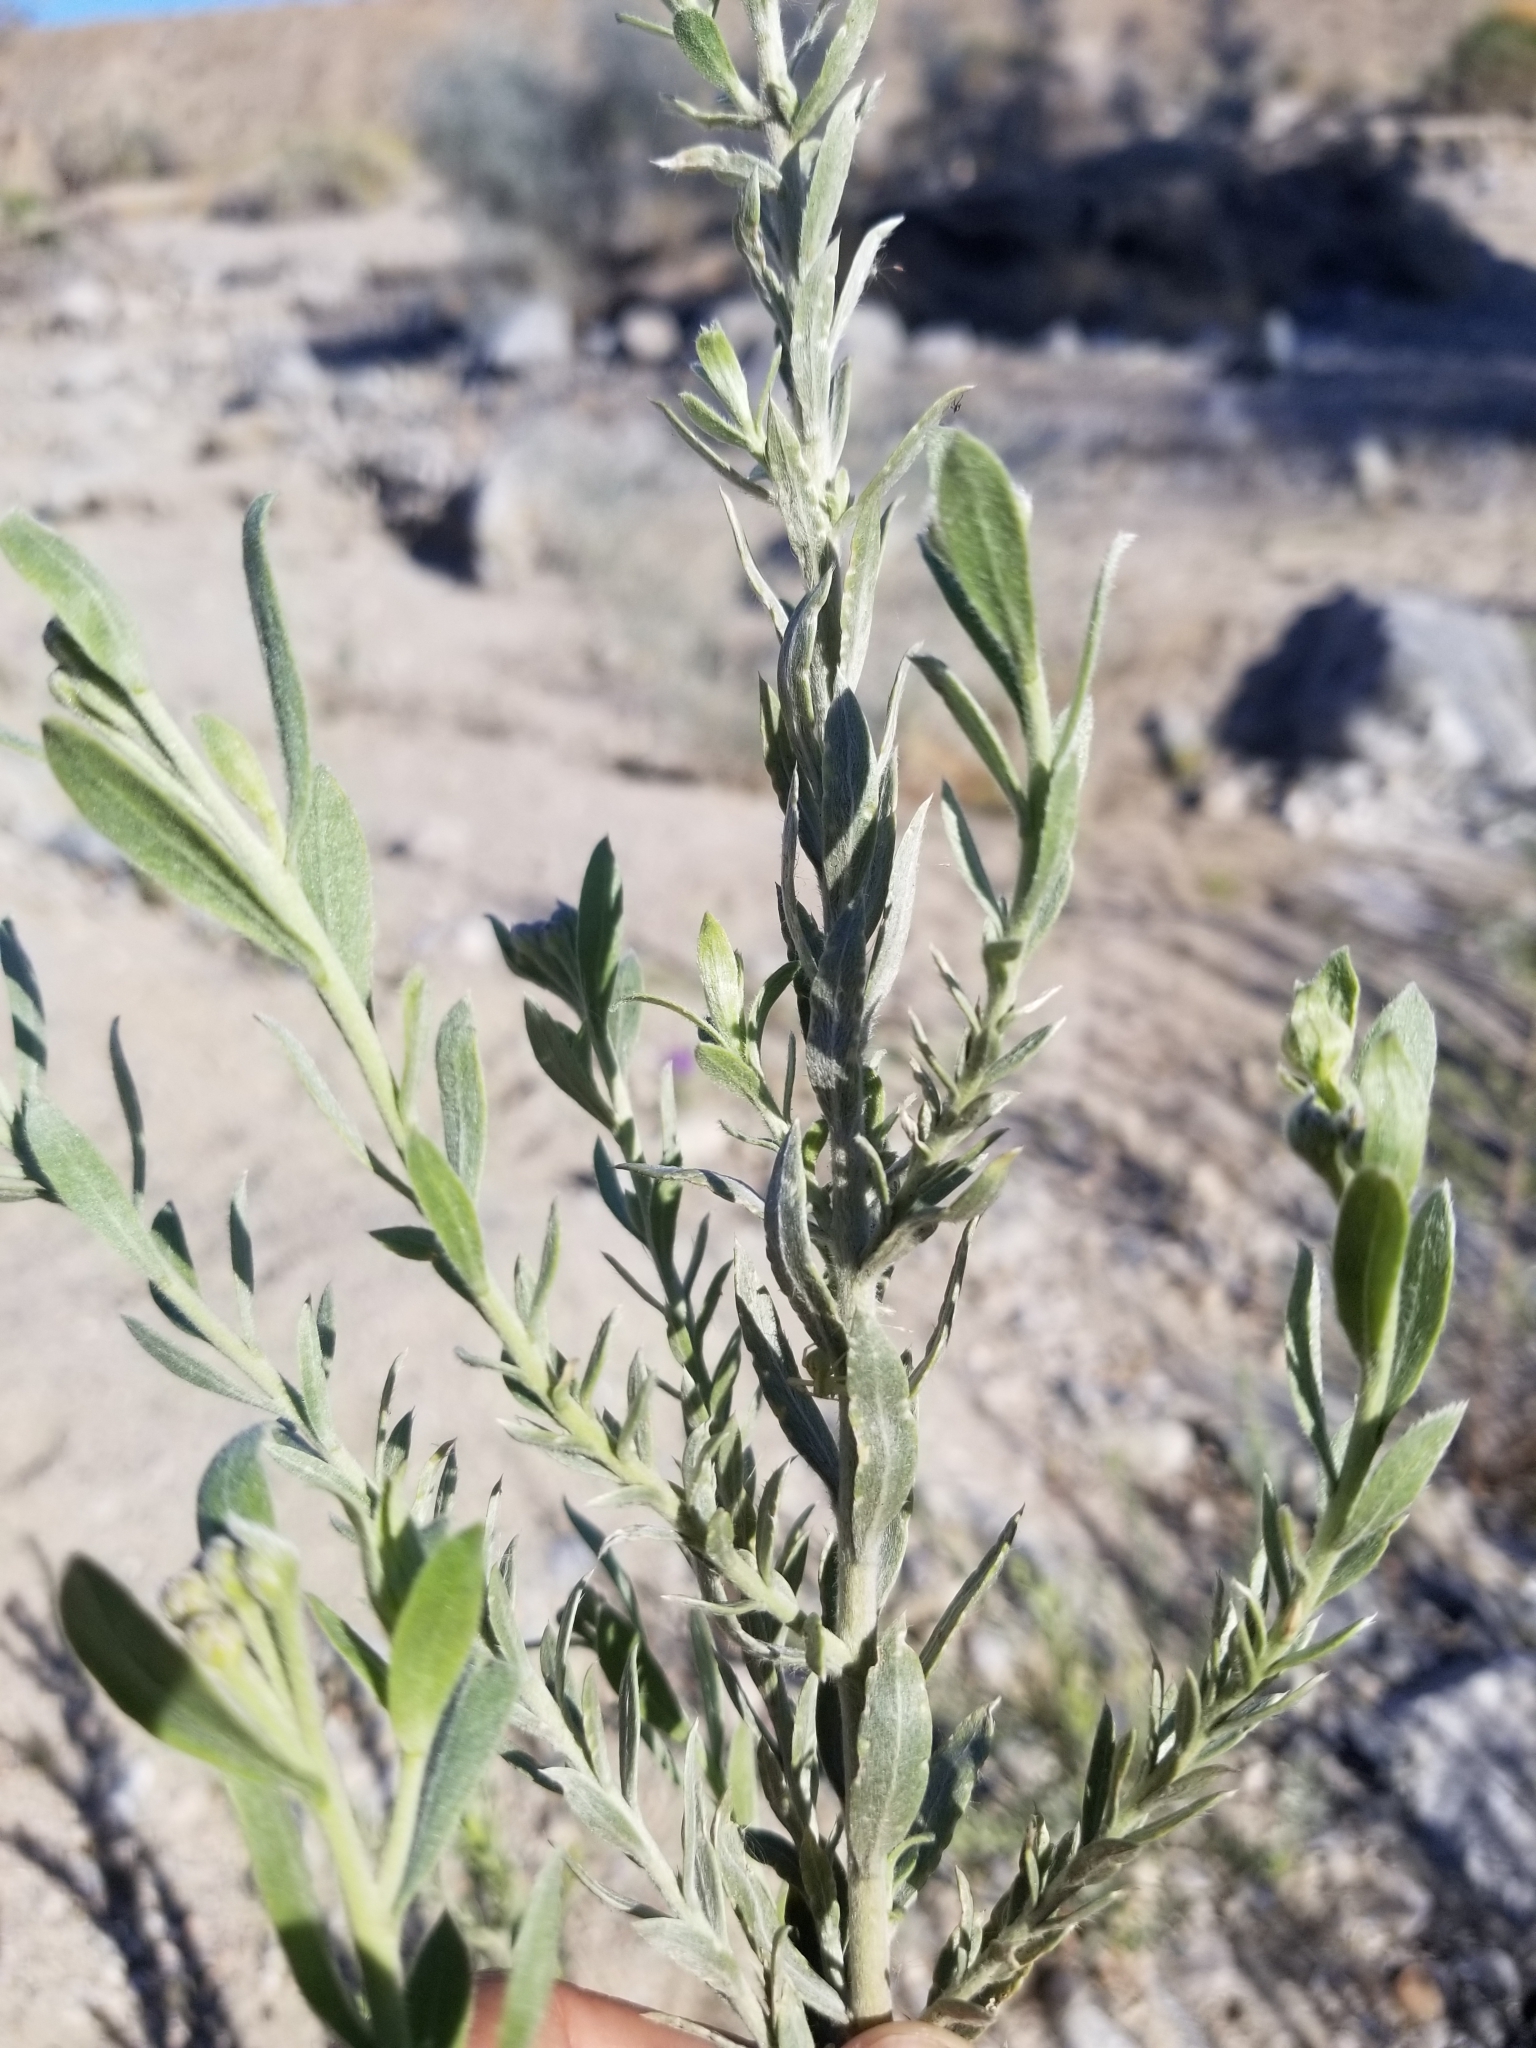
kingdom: Plantae
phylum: Tracheophyta
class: Magnoliopsida
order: Asterales
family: Asteraceae
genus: Pluchea
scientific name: Pluchea sericea
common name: Arrow-weed
